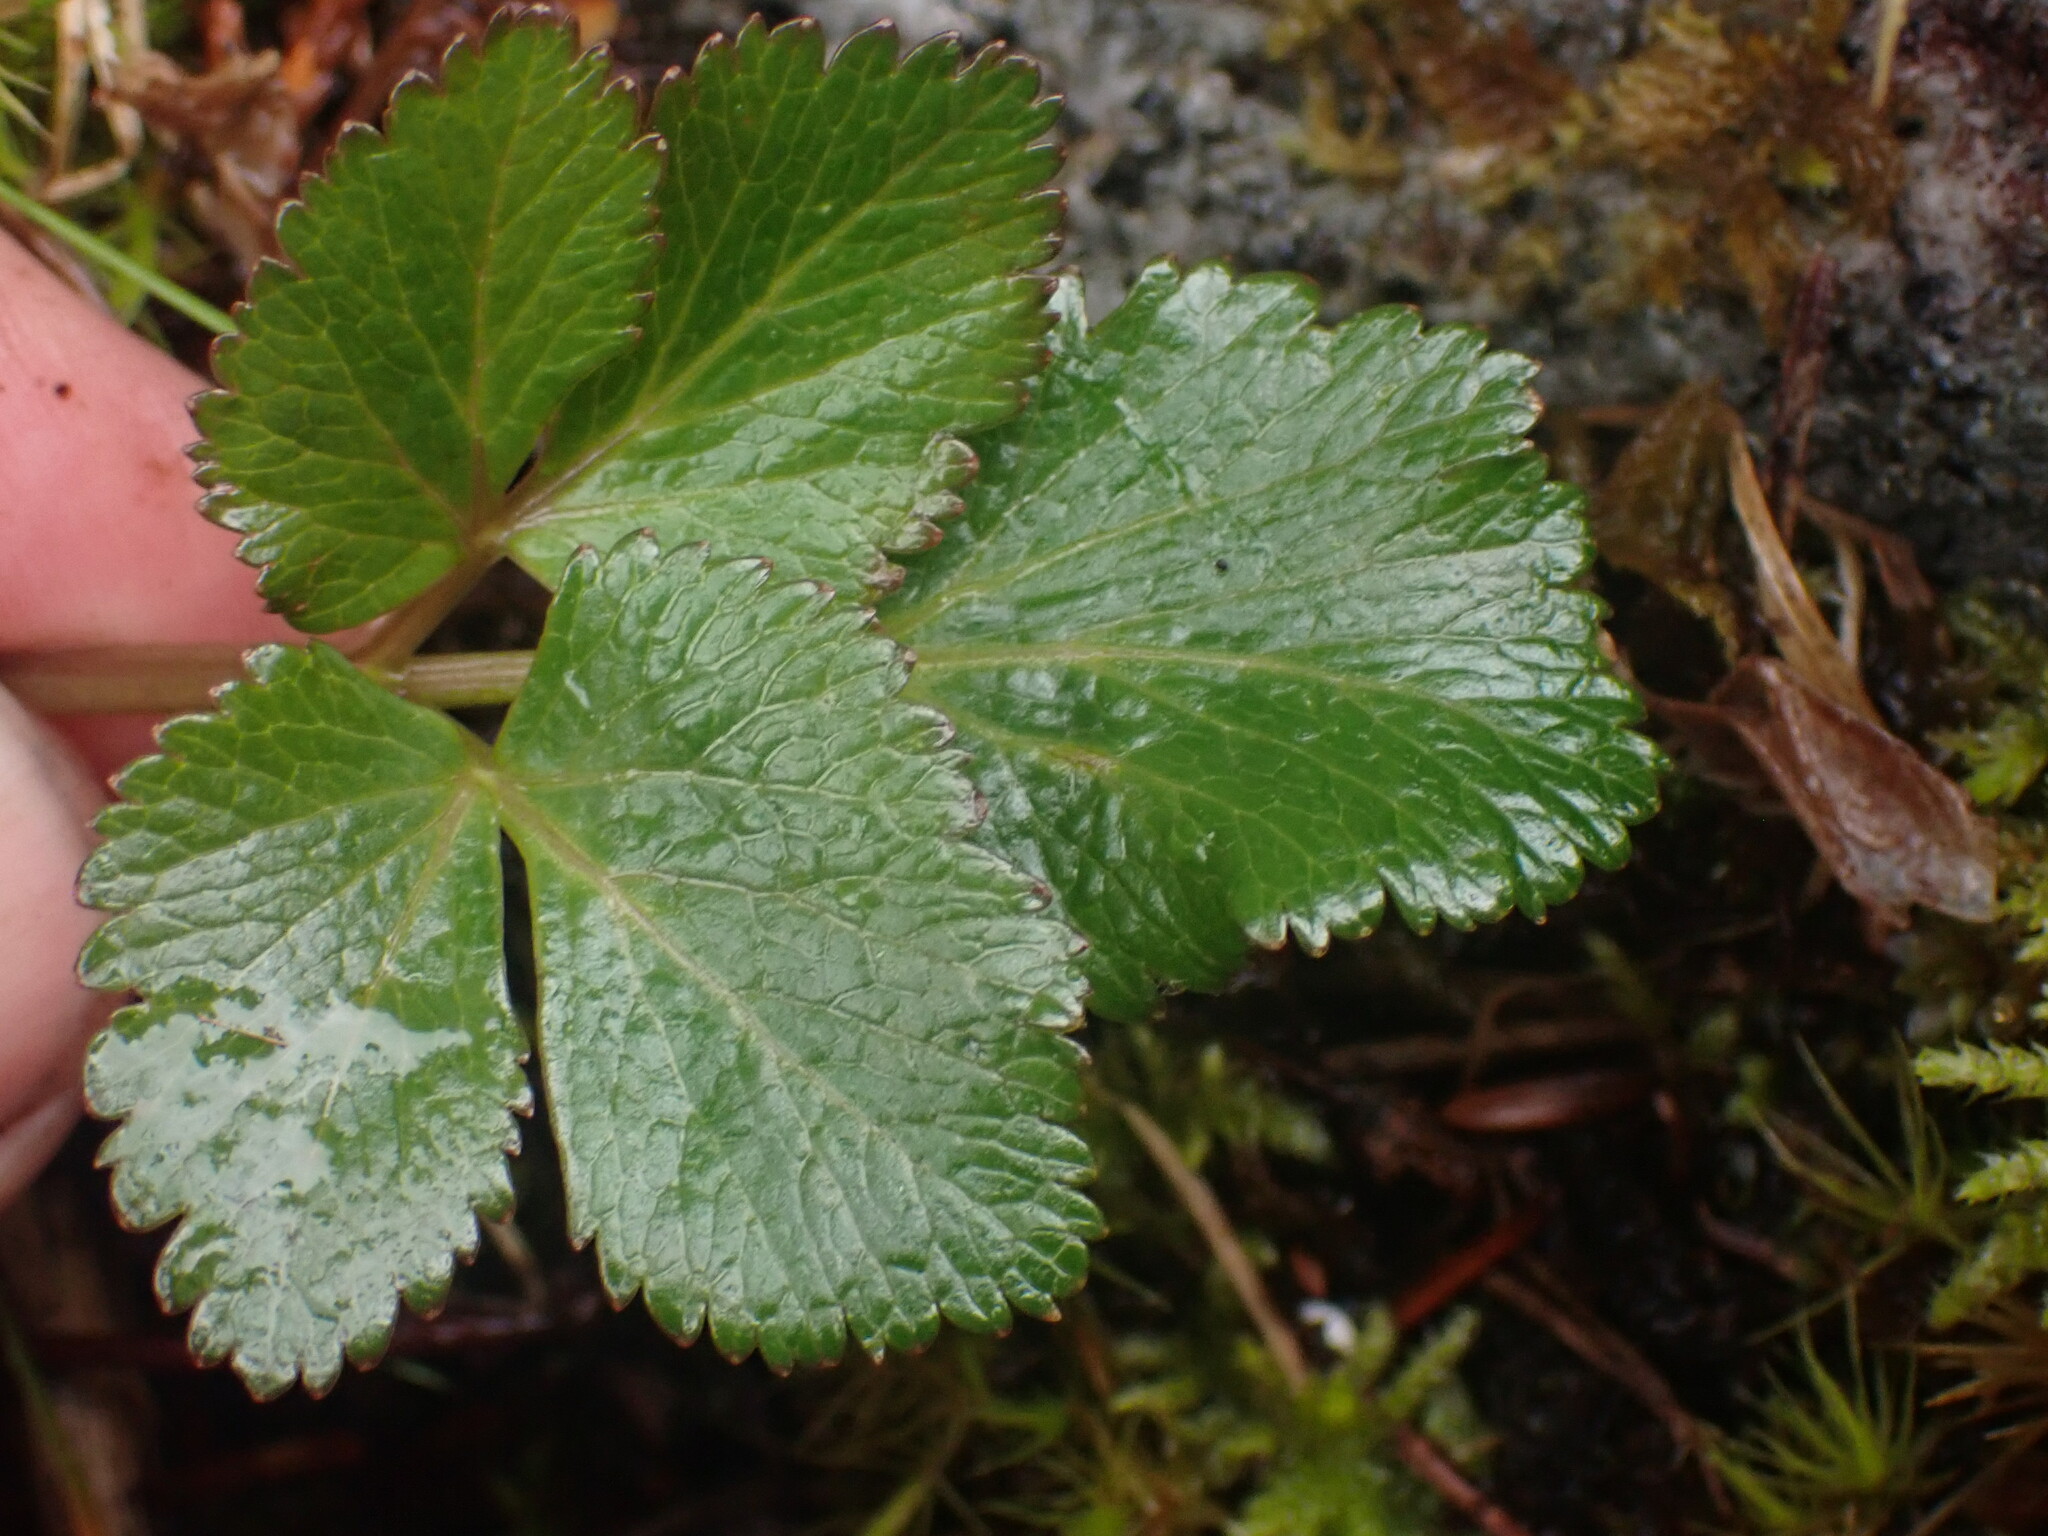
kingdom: Plantae
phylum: Tracheophyta
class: Magnoliopsida
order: Apiales
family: Apiaceae
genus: Angelica
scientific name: Angelica lucida
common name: Seabeach angelica
